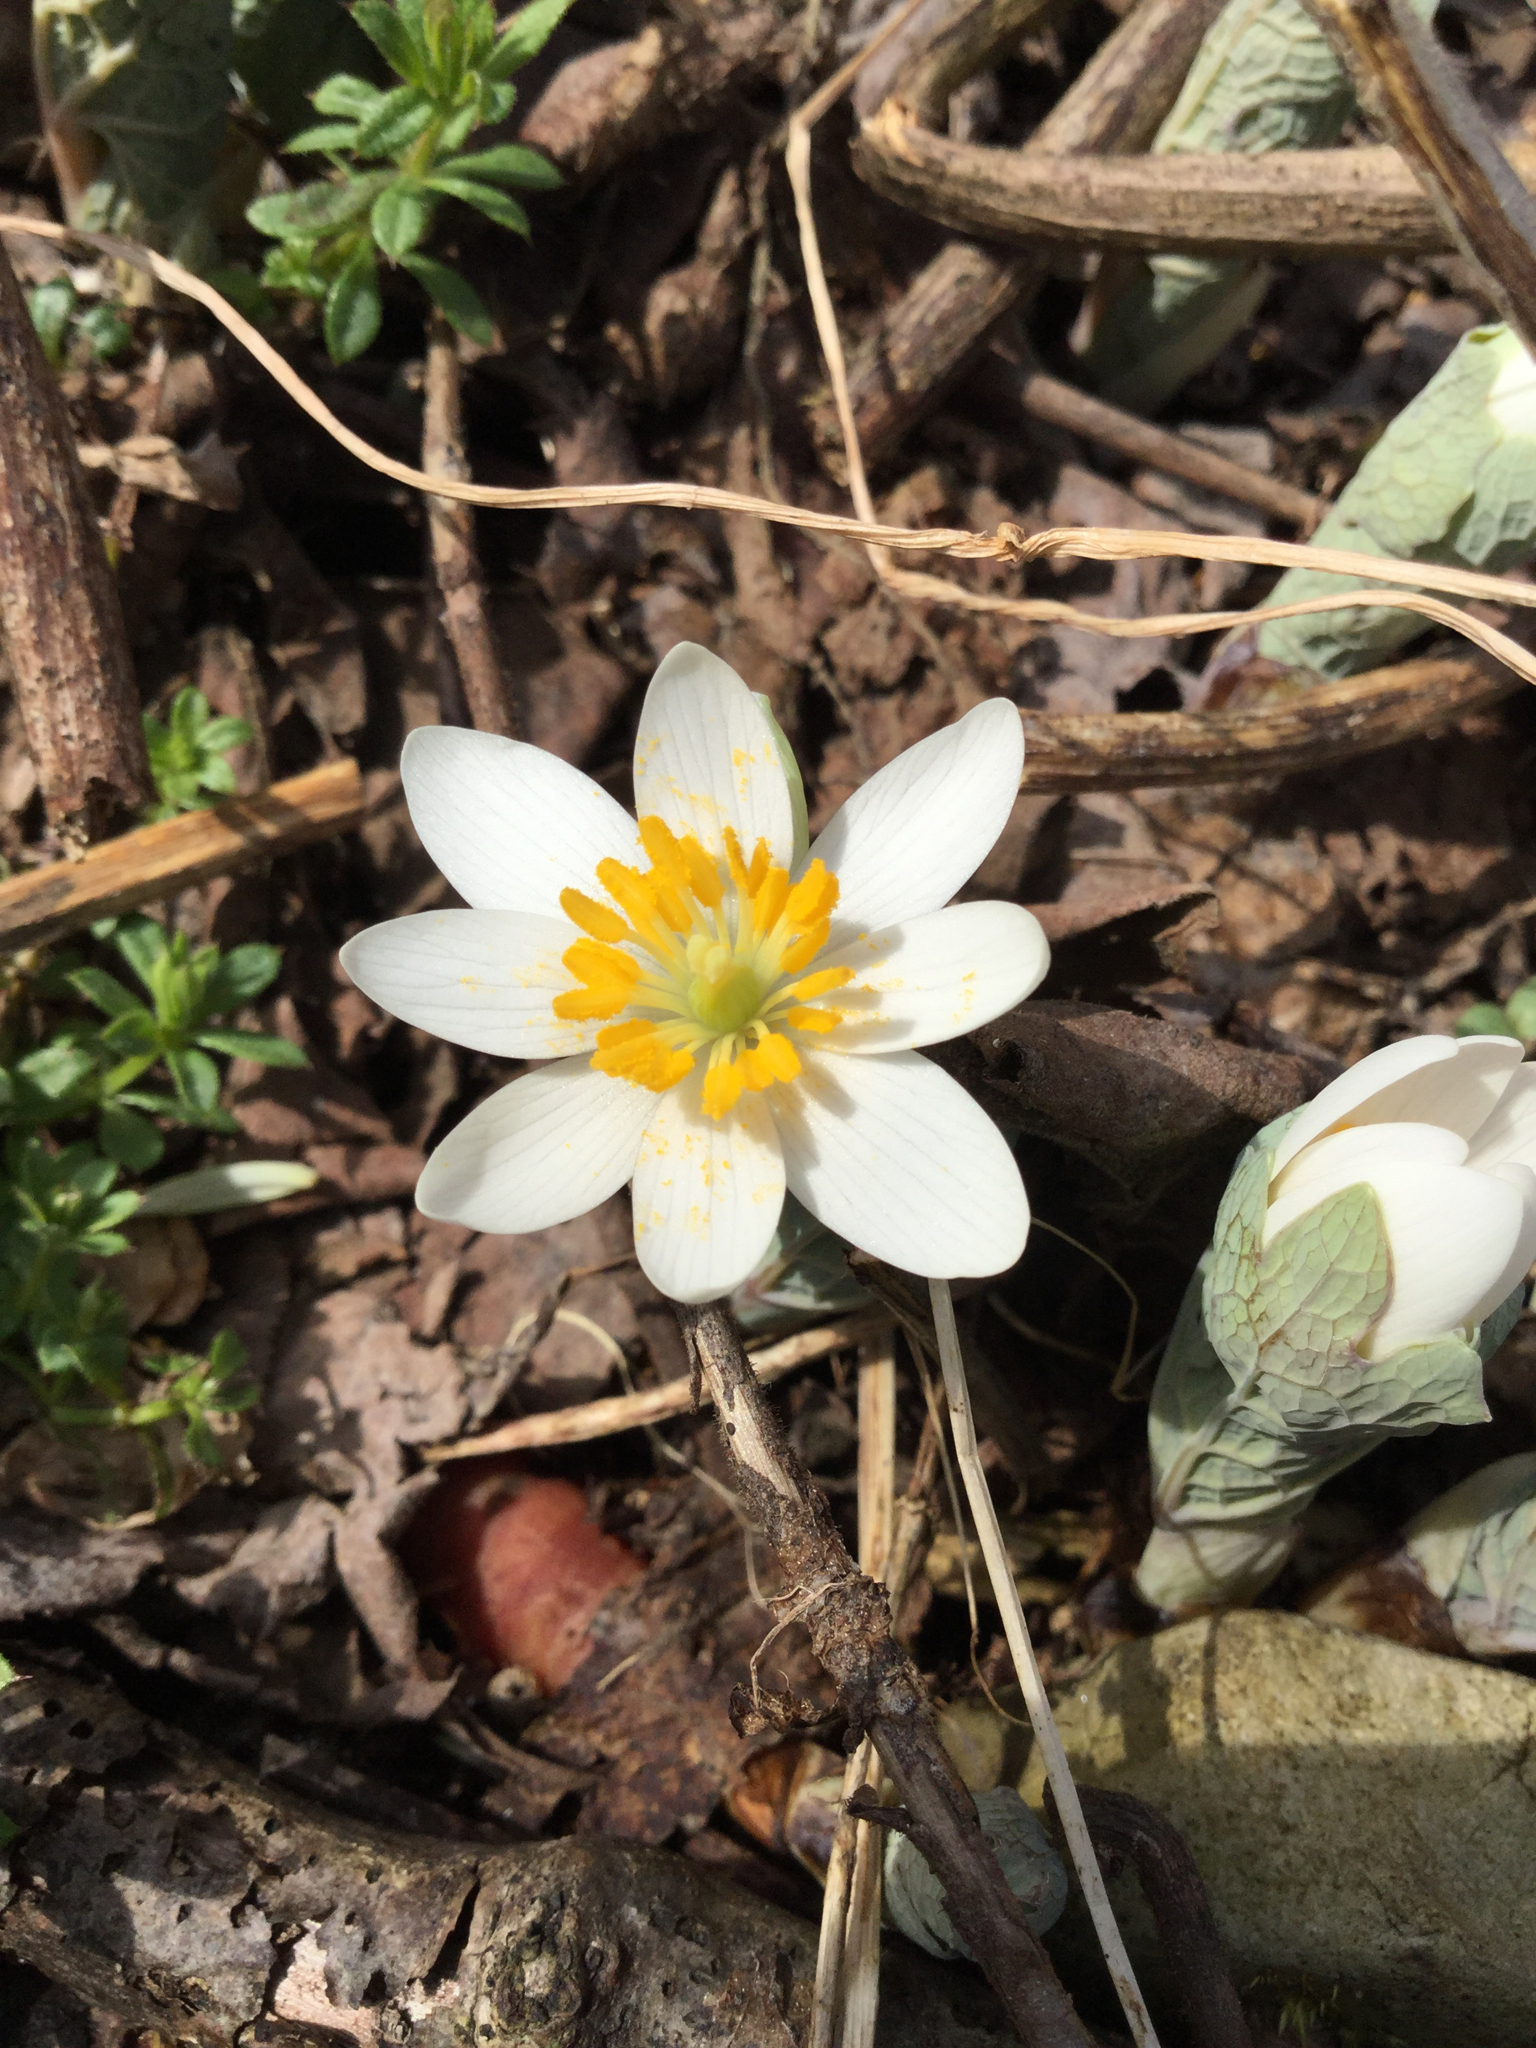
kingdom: Plantae
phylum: Tracheophyta
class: Magnoliopsida
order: Ranunculales
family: Papaveraceae
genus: Sanguinaria
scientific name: Sanguinaria canadensis
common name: Bloodroot
